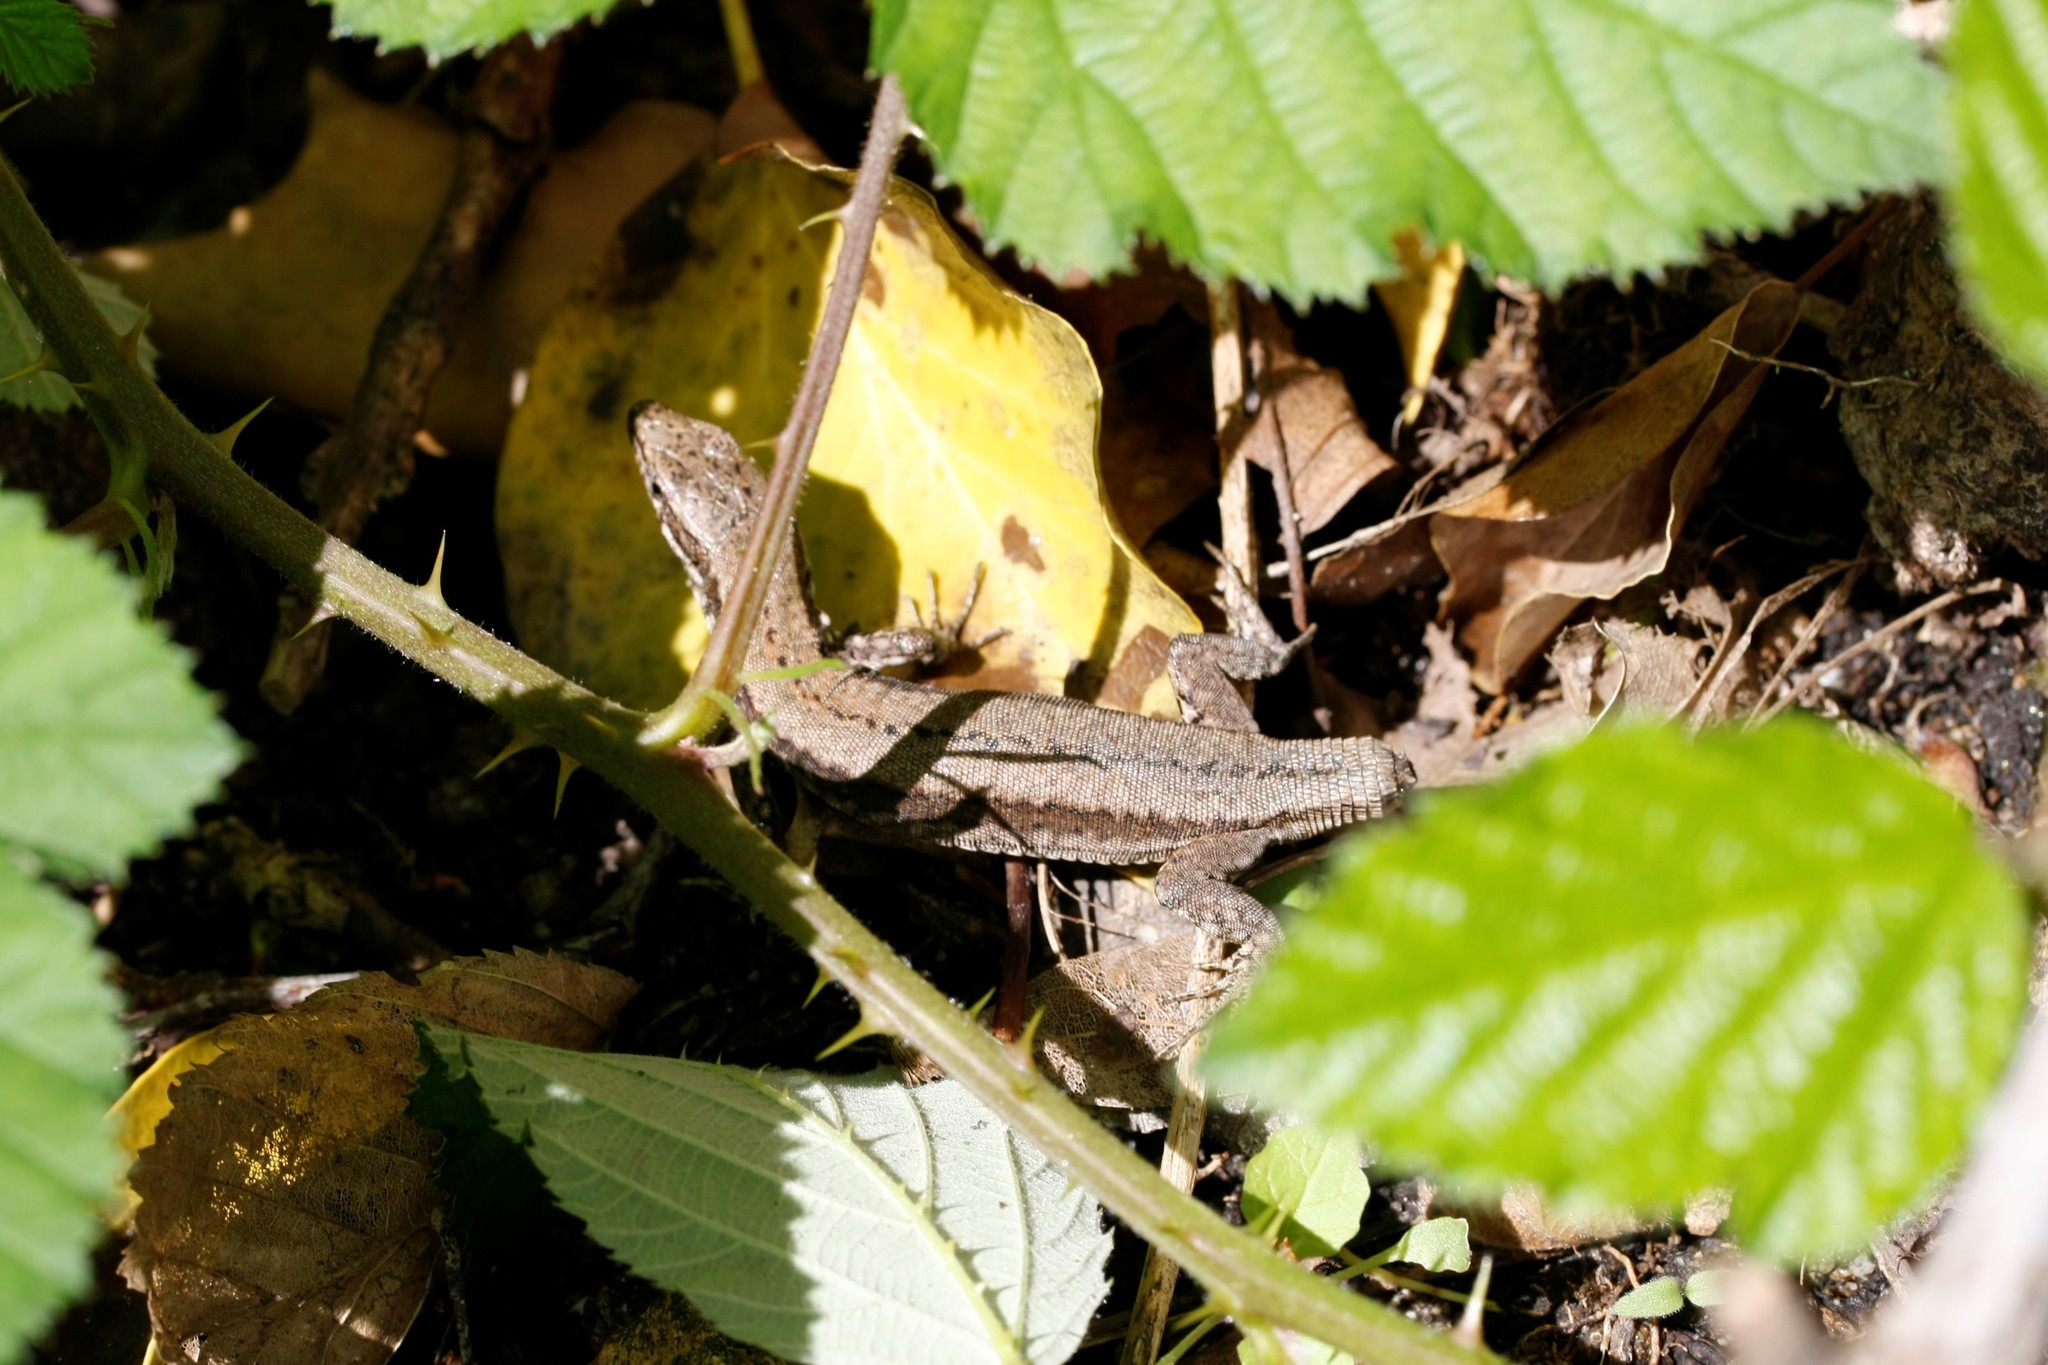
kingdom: Animalia
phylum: Chordata
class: Squamata
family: Lacertidae
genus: Podarcis
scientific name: Podarcis muralis
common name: Common wall lizard
